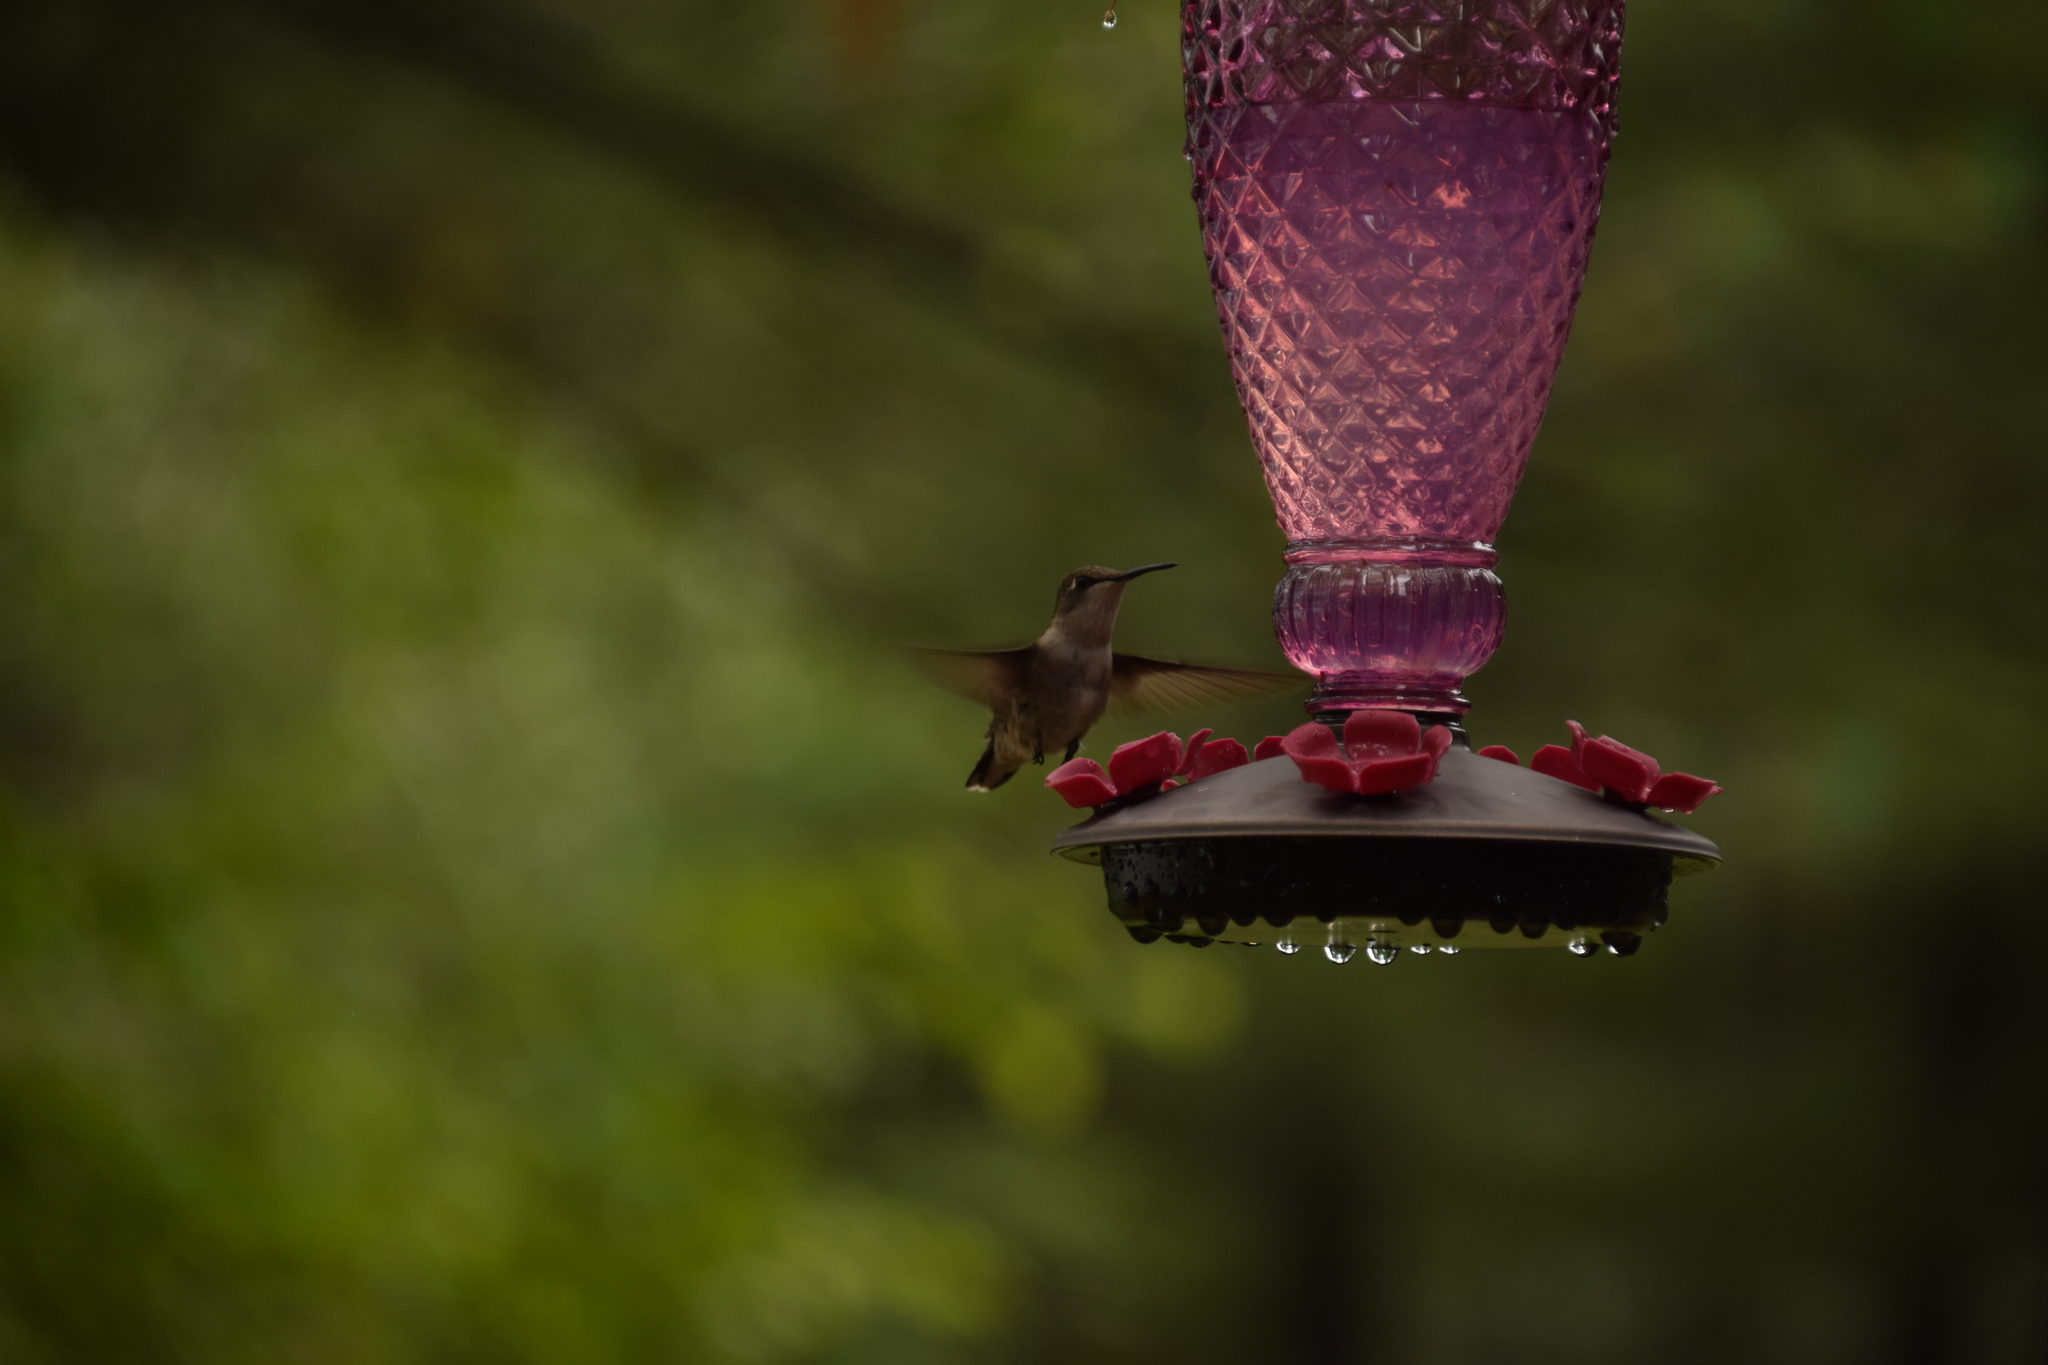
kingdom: Animalia
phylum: Chordata
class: Aves
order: Apodiformes
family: Trochilidae
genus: Archilochus
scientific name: Archilochus colubris
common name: Ruby-throated hummingbird
